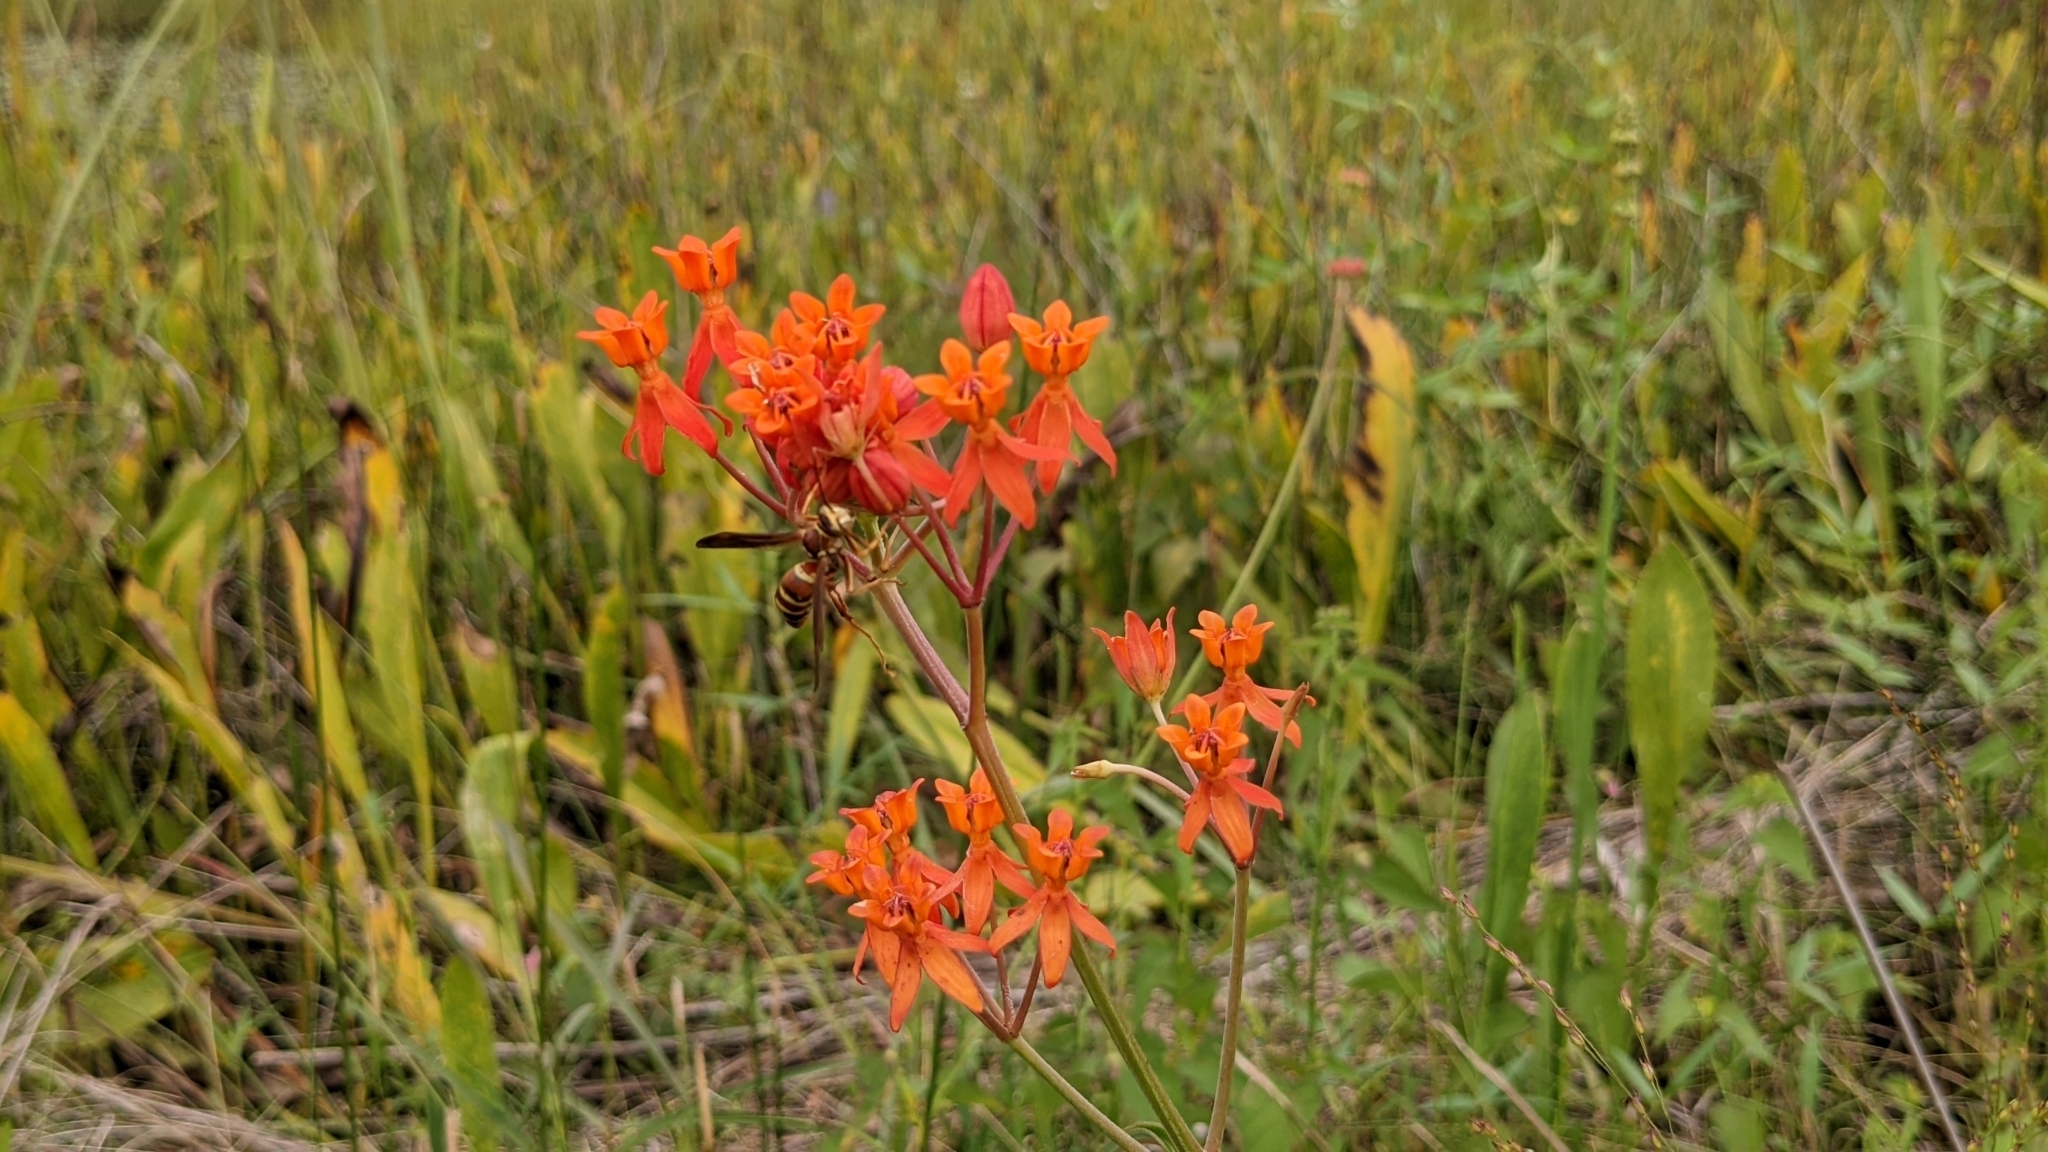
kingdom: Plantae
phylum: Tracheophyta
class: Magnoliopsida
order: Gentianales
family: Apocynaceae
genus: Asclepias
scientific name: Asclepias lanceolata
